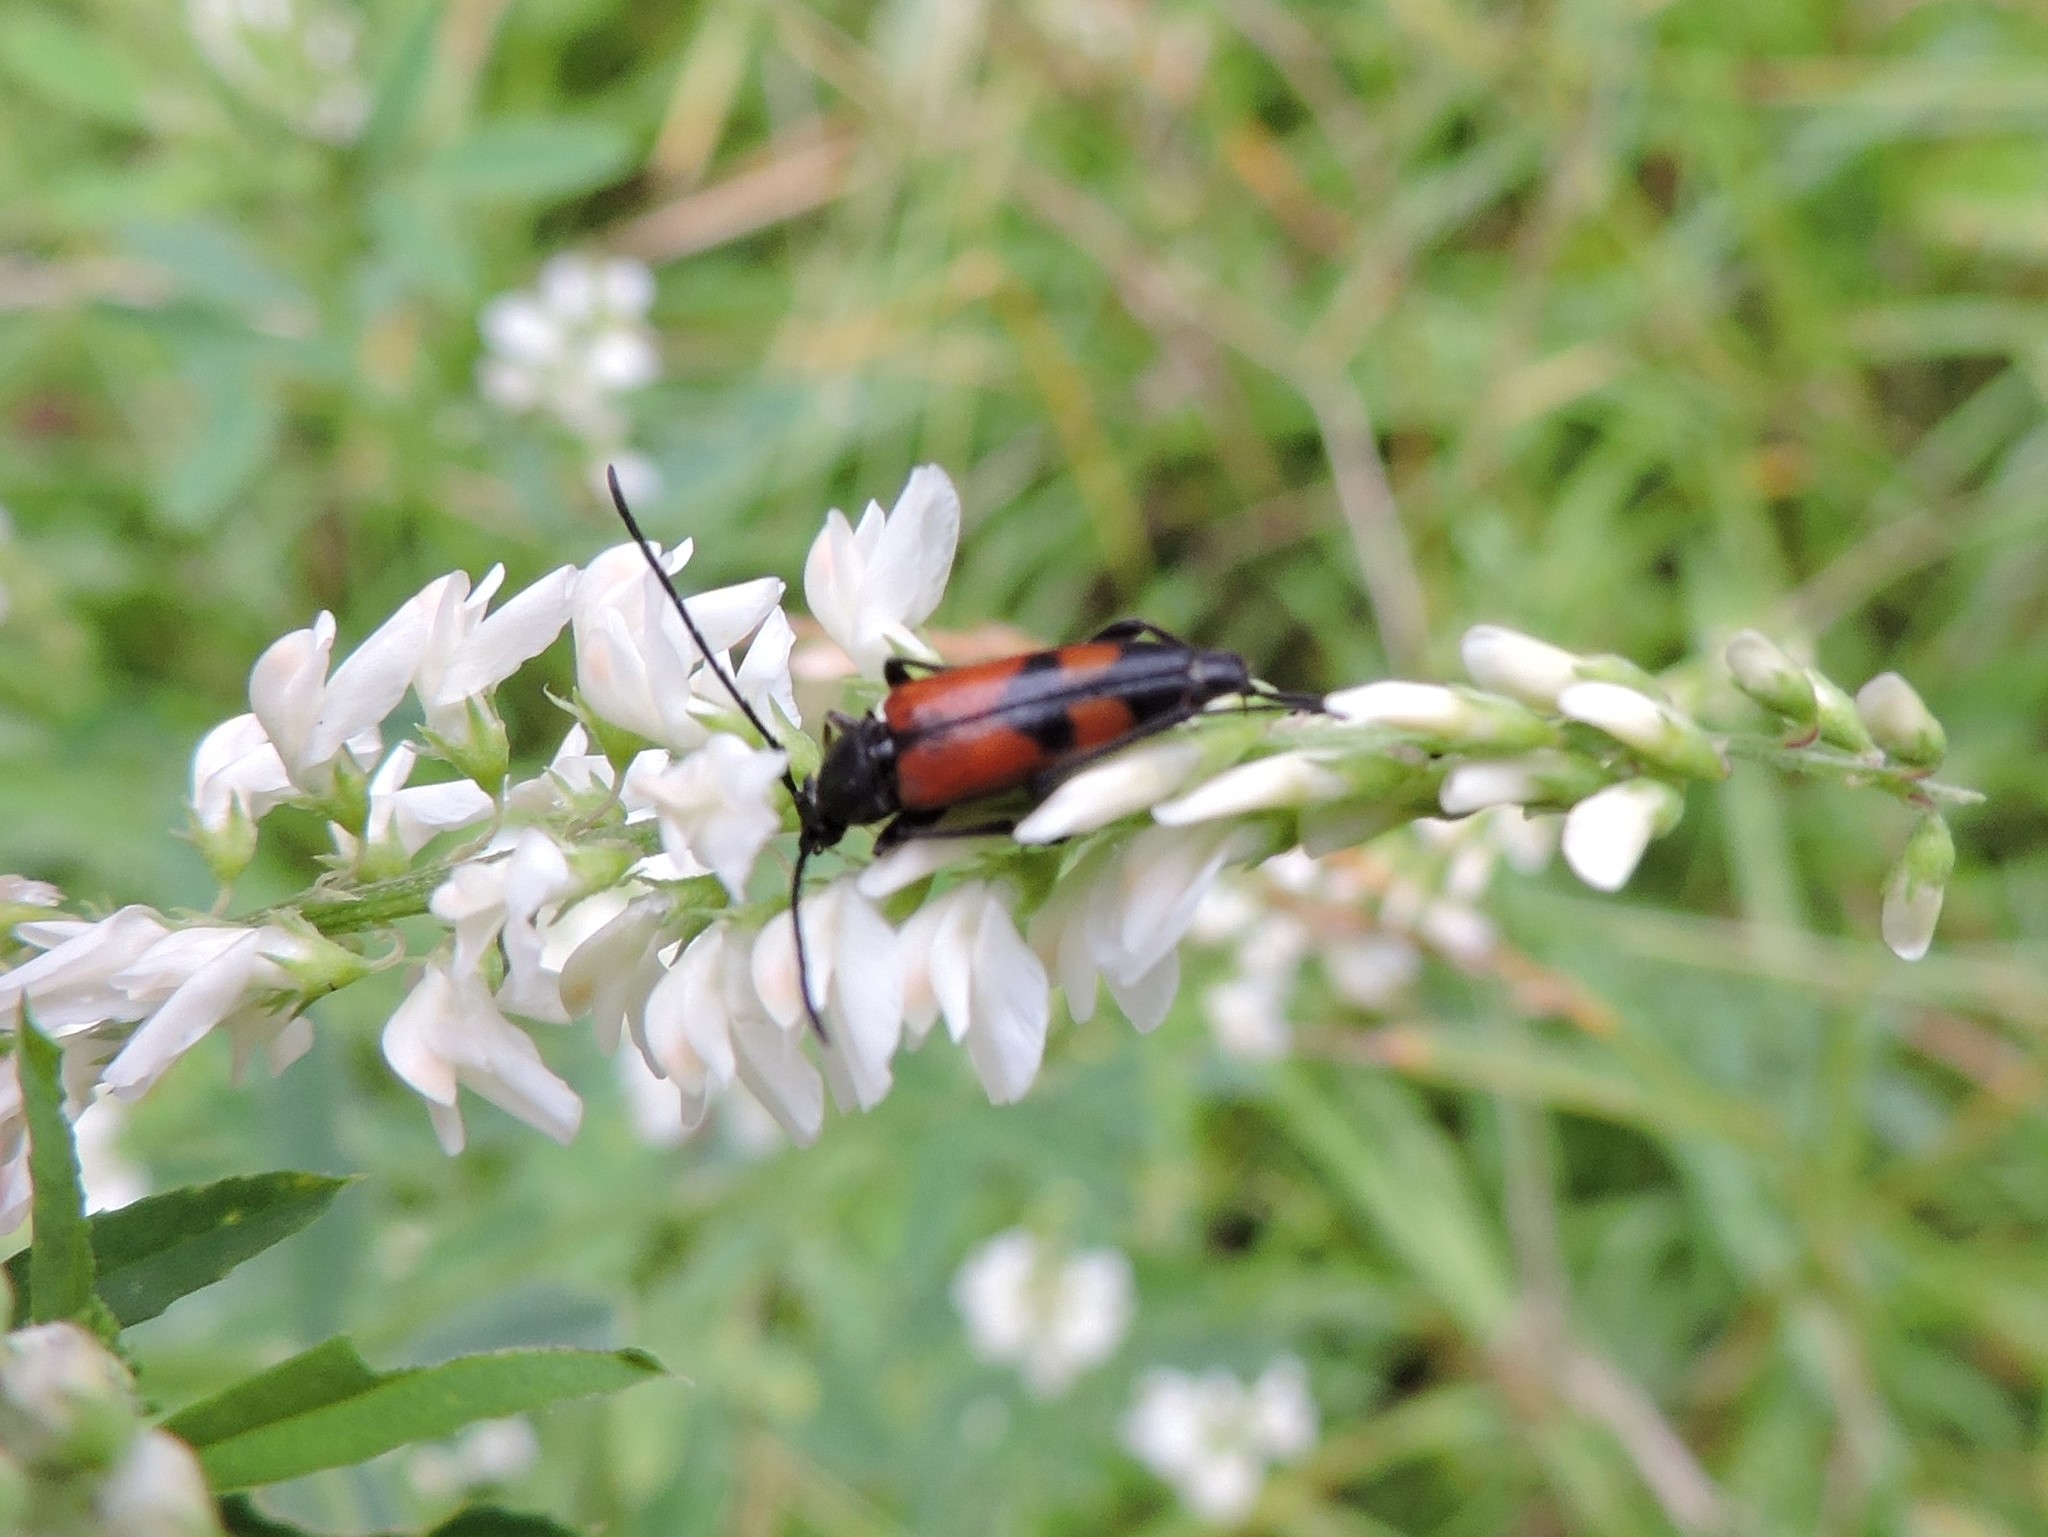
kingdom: Animalia
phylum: Arthropoda
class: Insecta
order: Coleoptera
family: Cerambycidae
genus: Stenurella
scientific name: Stenurella bifasciata
